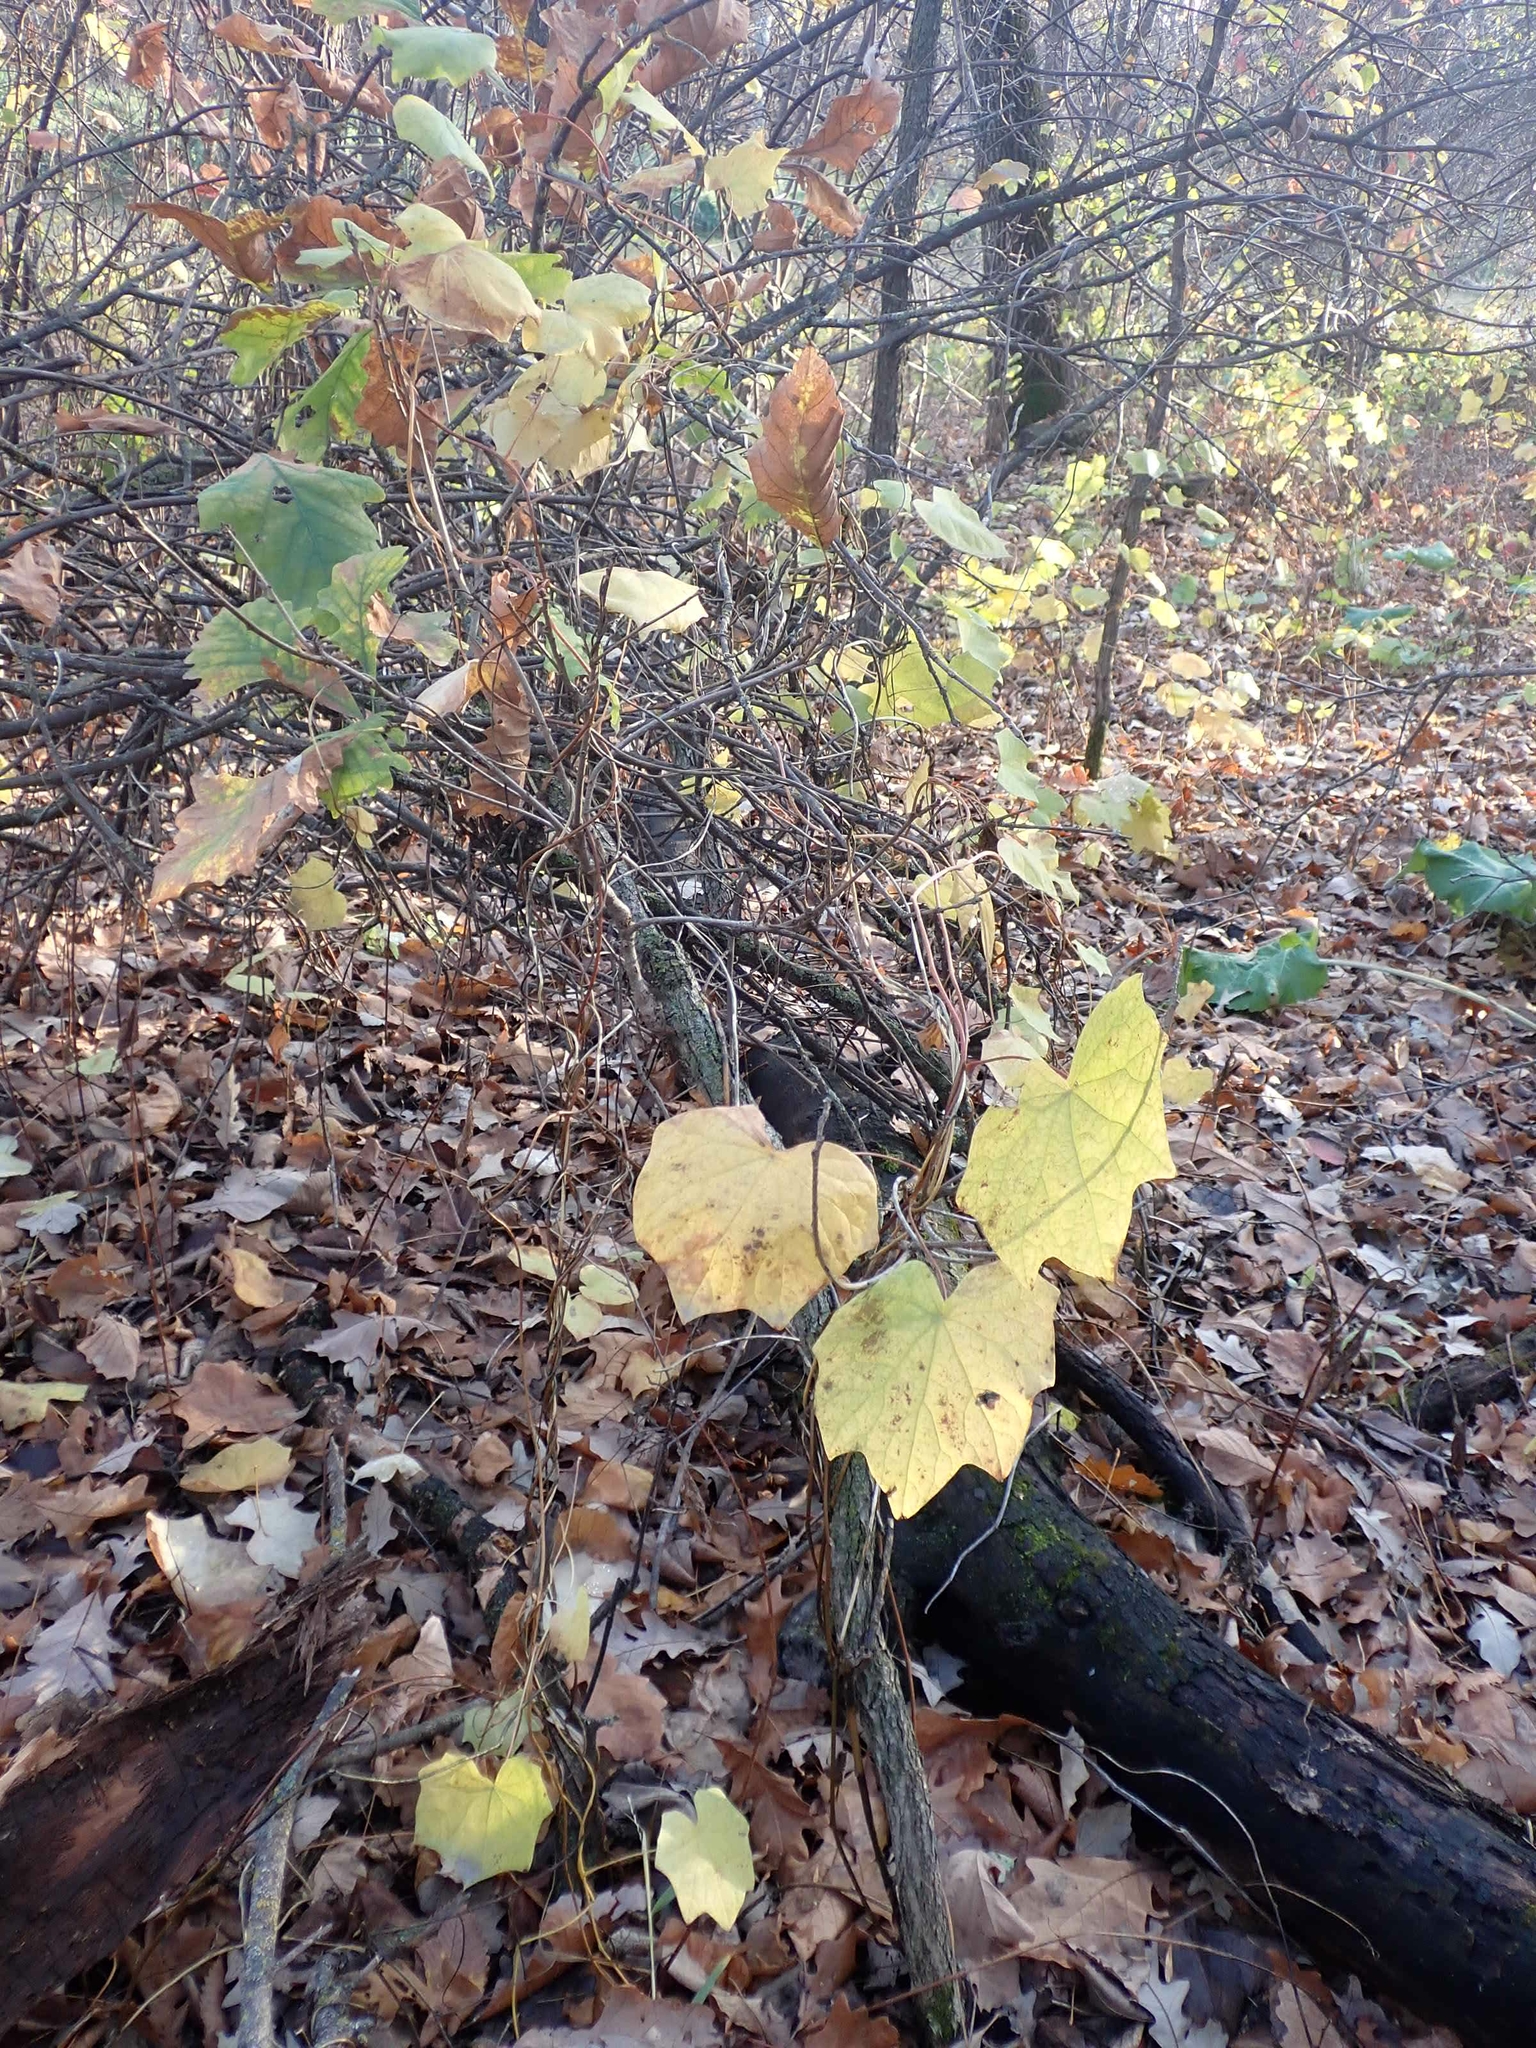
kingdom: Plantae
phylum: Tracheophyta
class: Magnoliopsida
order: Vitales
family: Vitaceae
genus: Vitis
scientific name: Vitis riparia
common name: Frost grape
